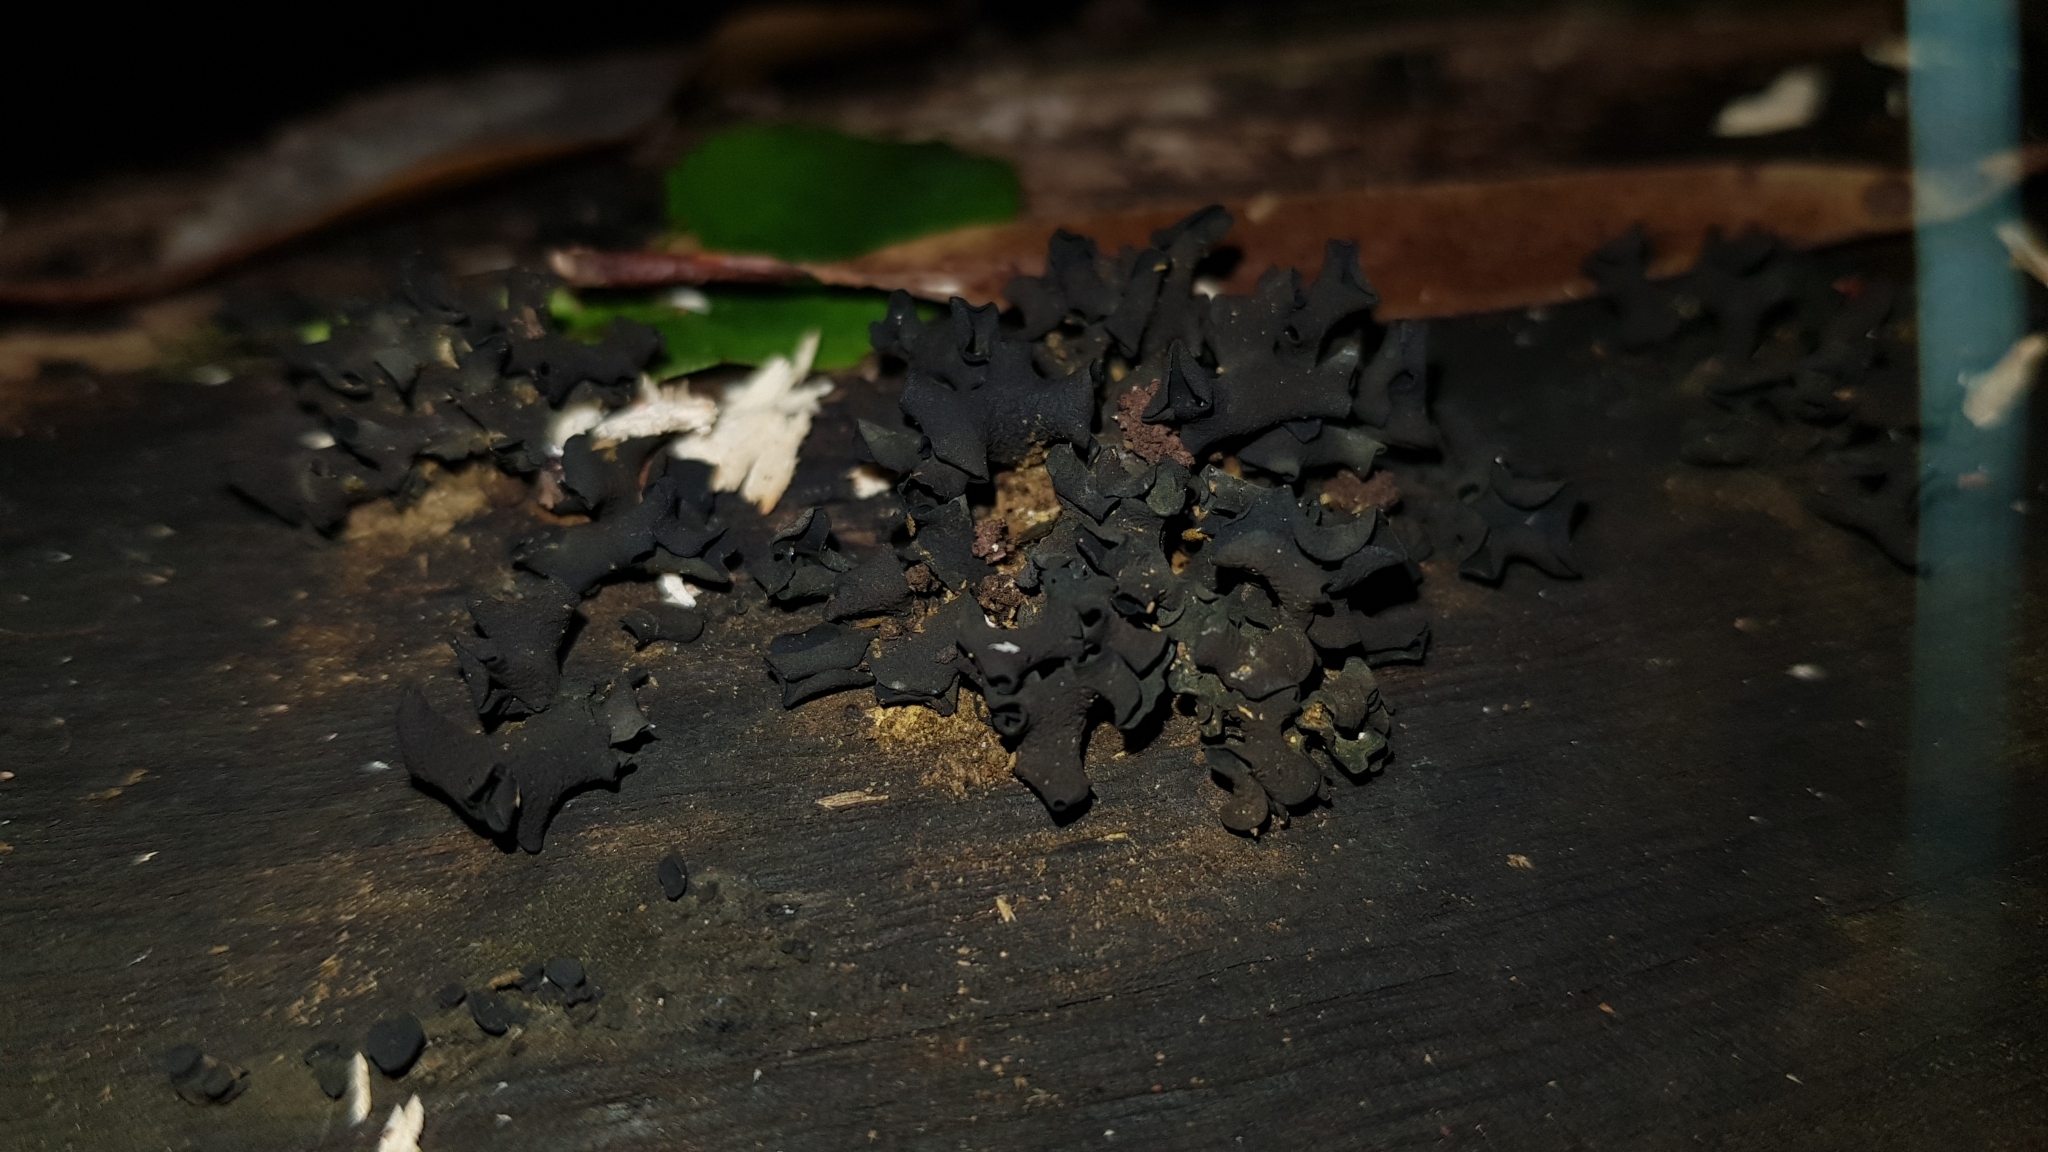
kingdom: Fungi
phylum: Ascomycota
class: Leotiomycetes
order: Helotiales
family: Cordieritidaceae
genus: Cordierites
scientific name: Cordierites frondosus
